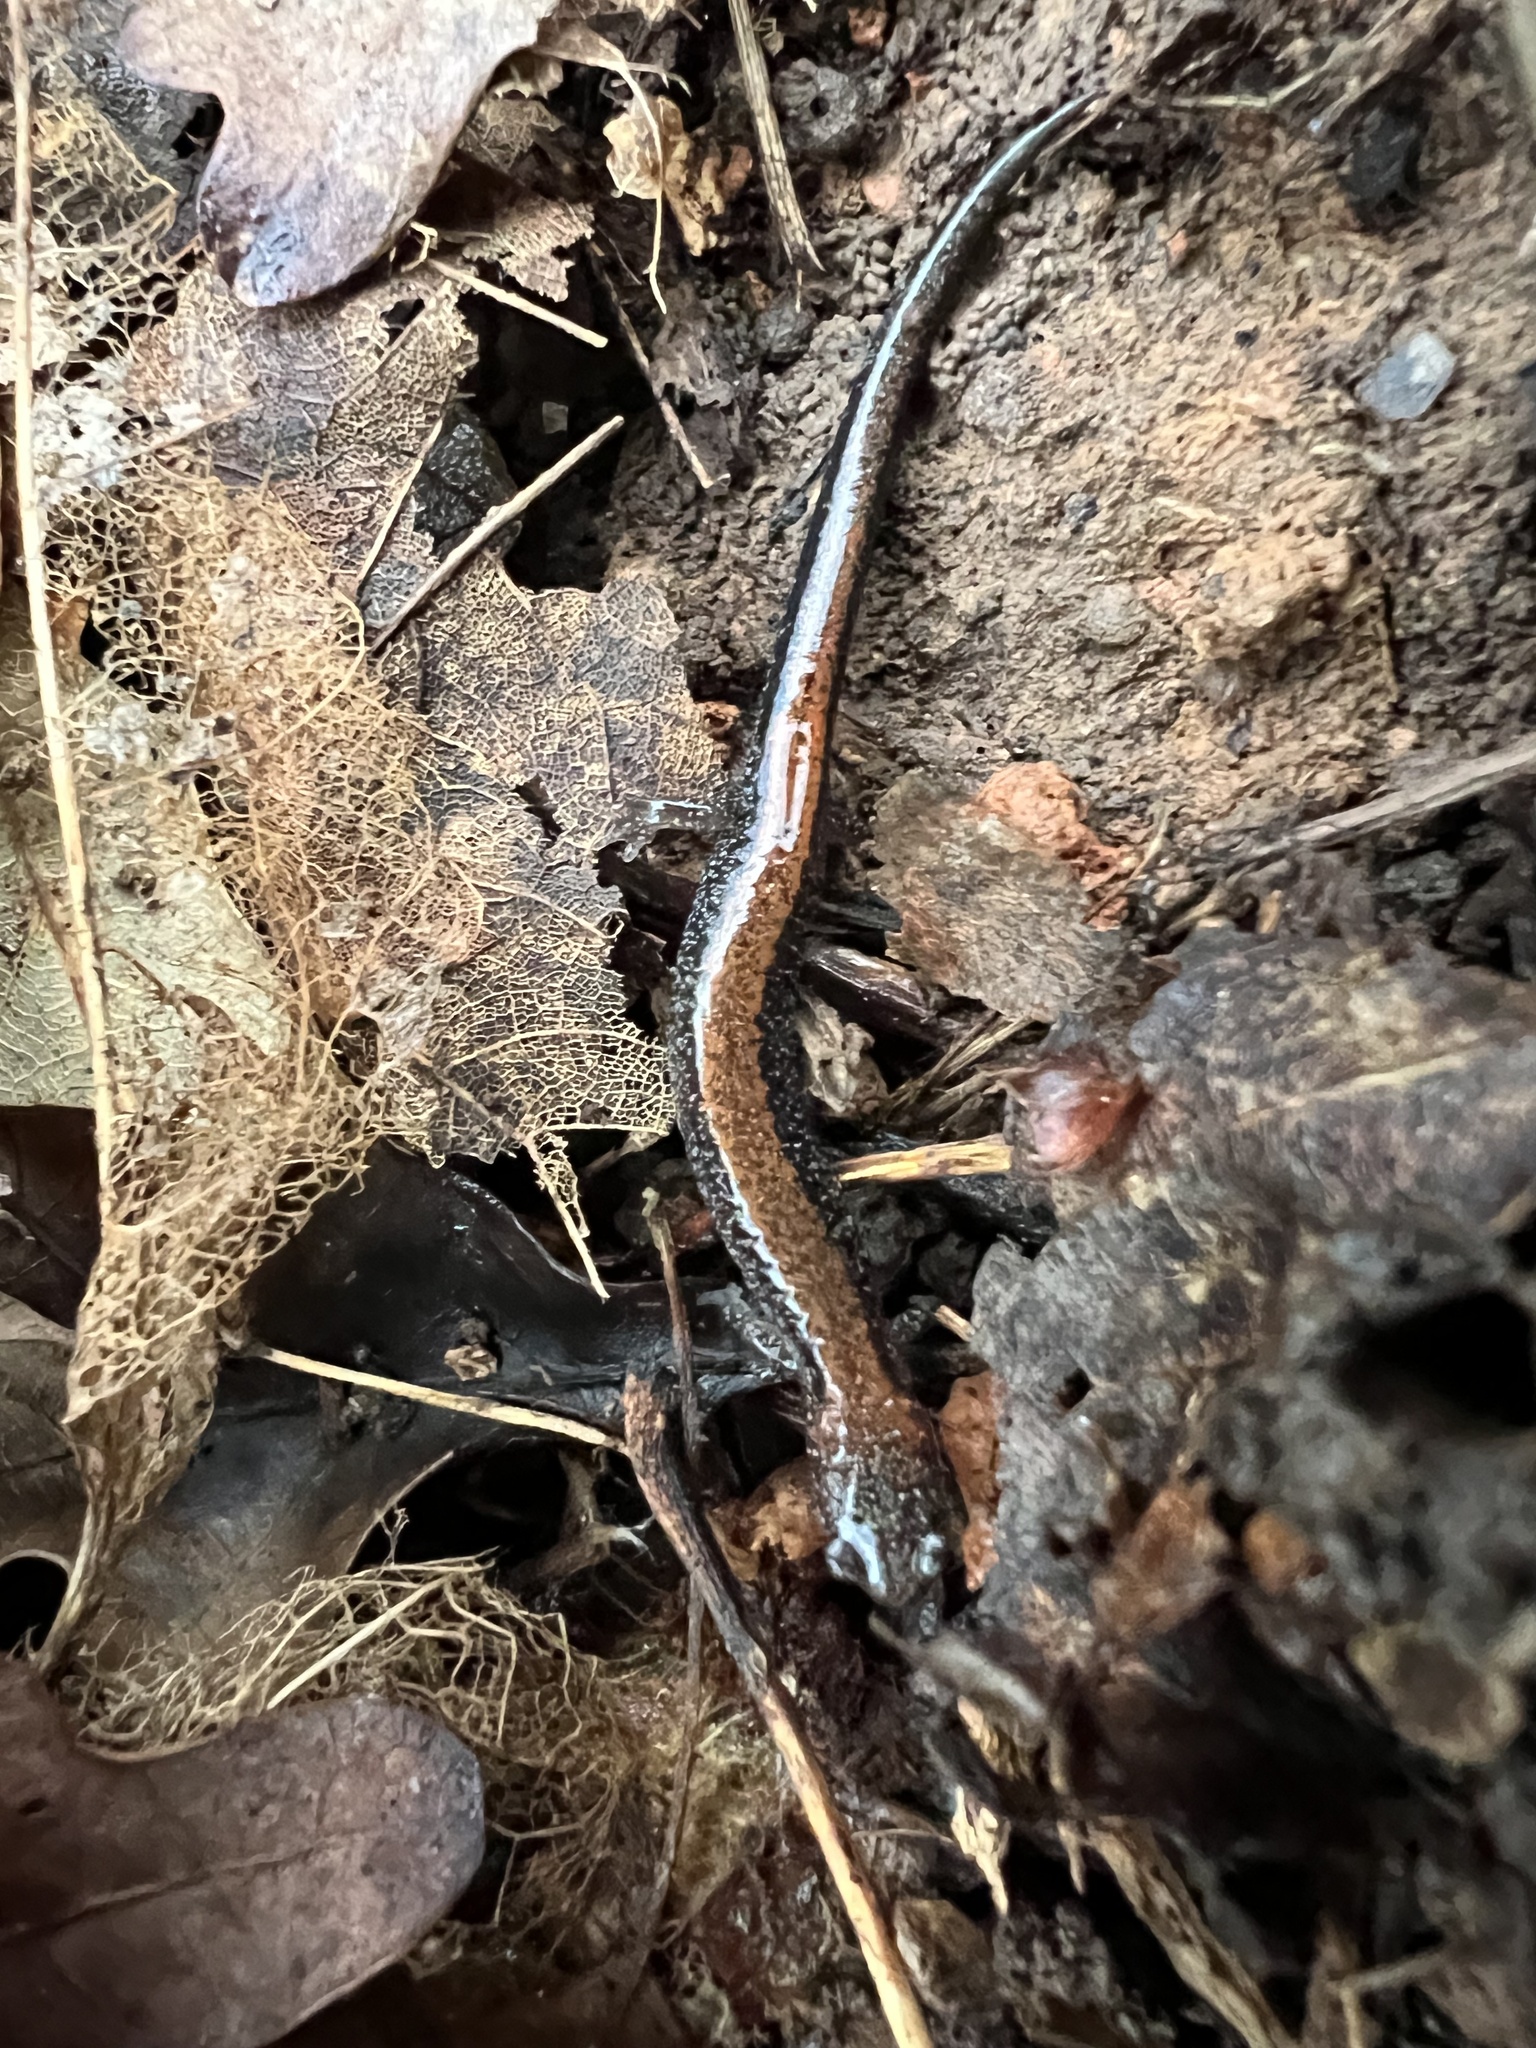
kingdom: Animalia
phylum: Chordata
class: Amphibia
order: Caudata
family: Plethodontidae
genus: Plethodon
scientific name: Plethodon cinereus
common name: Redback salamander
